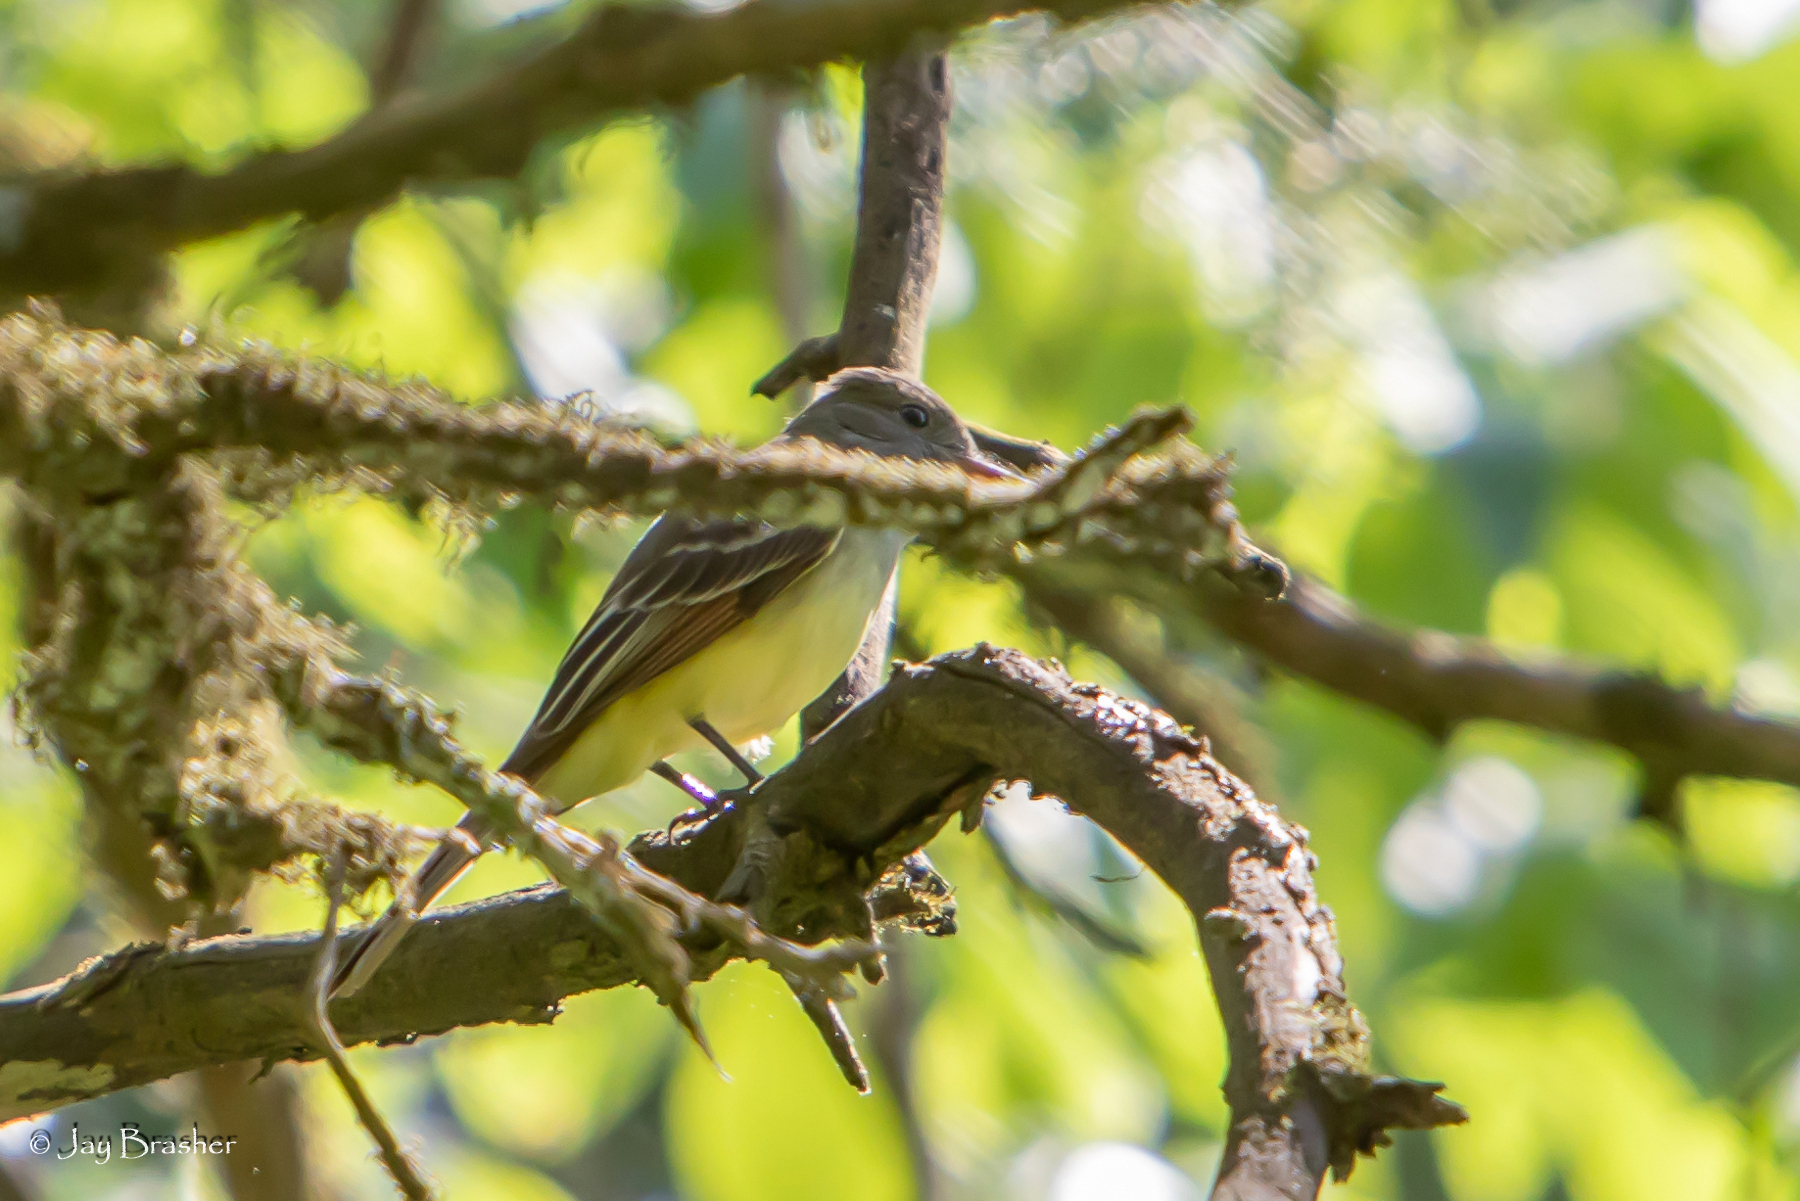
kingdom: Animalia
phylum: Chordata
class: Aves
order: Passeriformes
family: Tyrannidae
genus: Myiarchus
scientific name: Myiarchus crinitus
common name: Great crested flycatcher
